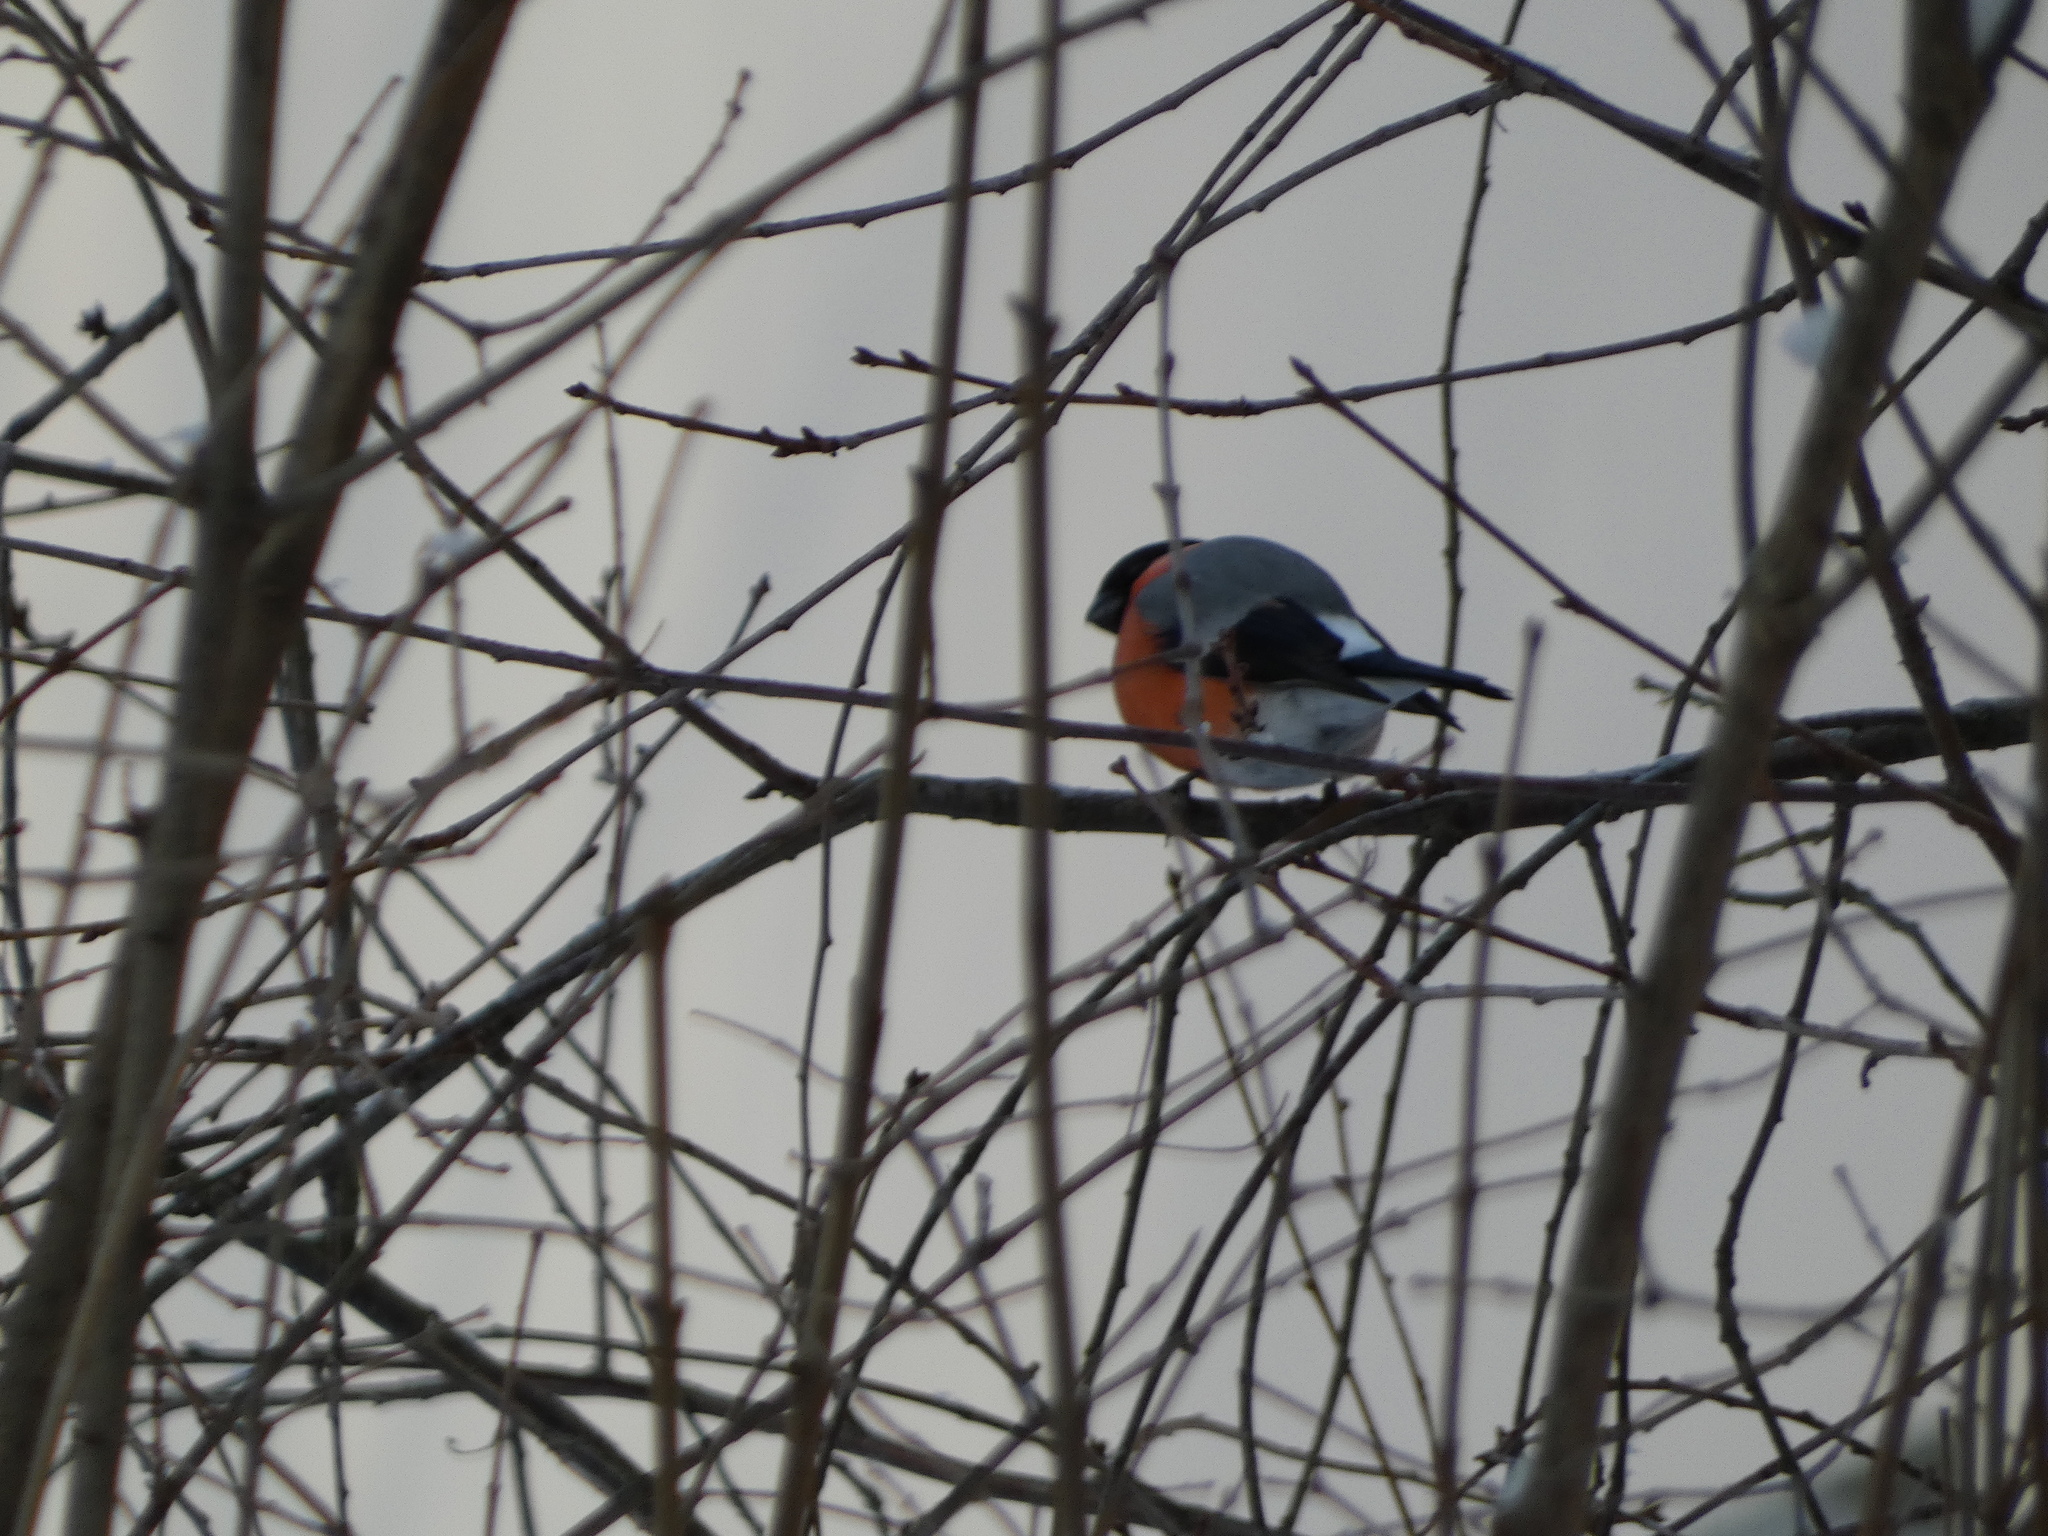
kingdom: Animalia
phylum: Chordata
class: Aves
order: Passeriformes
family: Fringillidae
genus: Pyrrhula
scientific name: Pyrrhula pyrrhula
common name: Eurasian bullfinch
